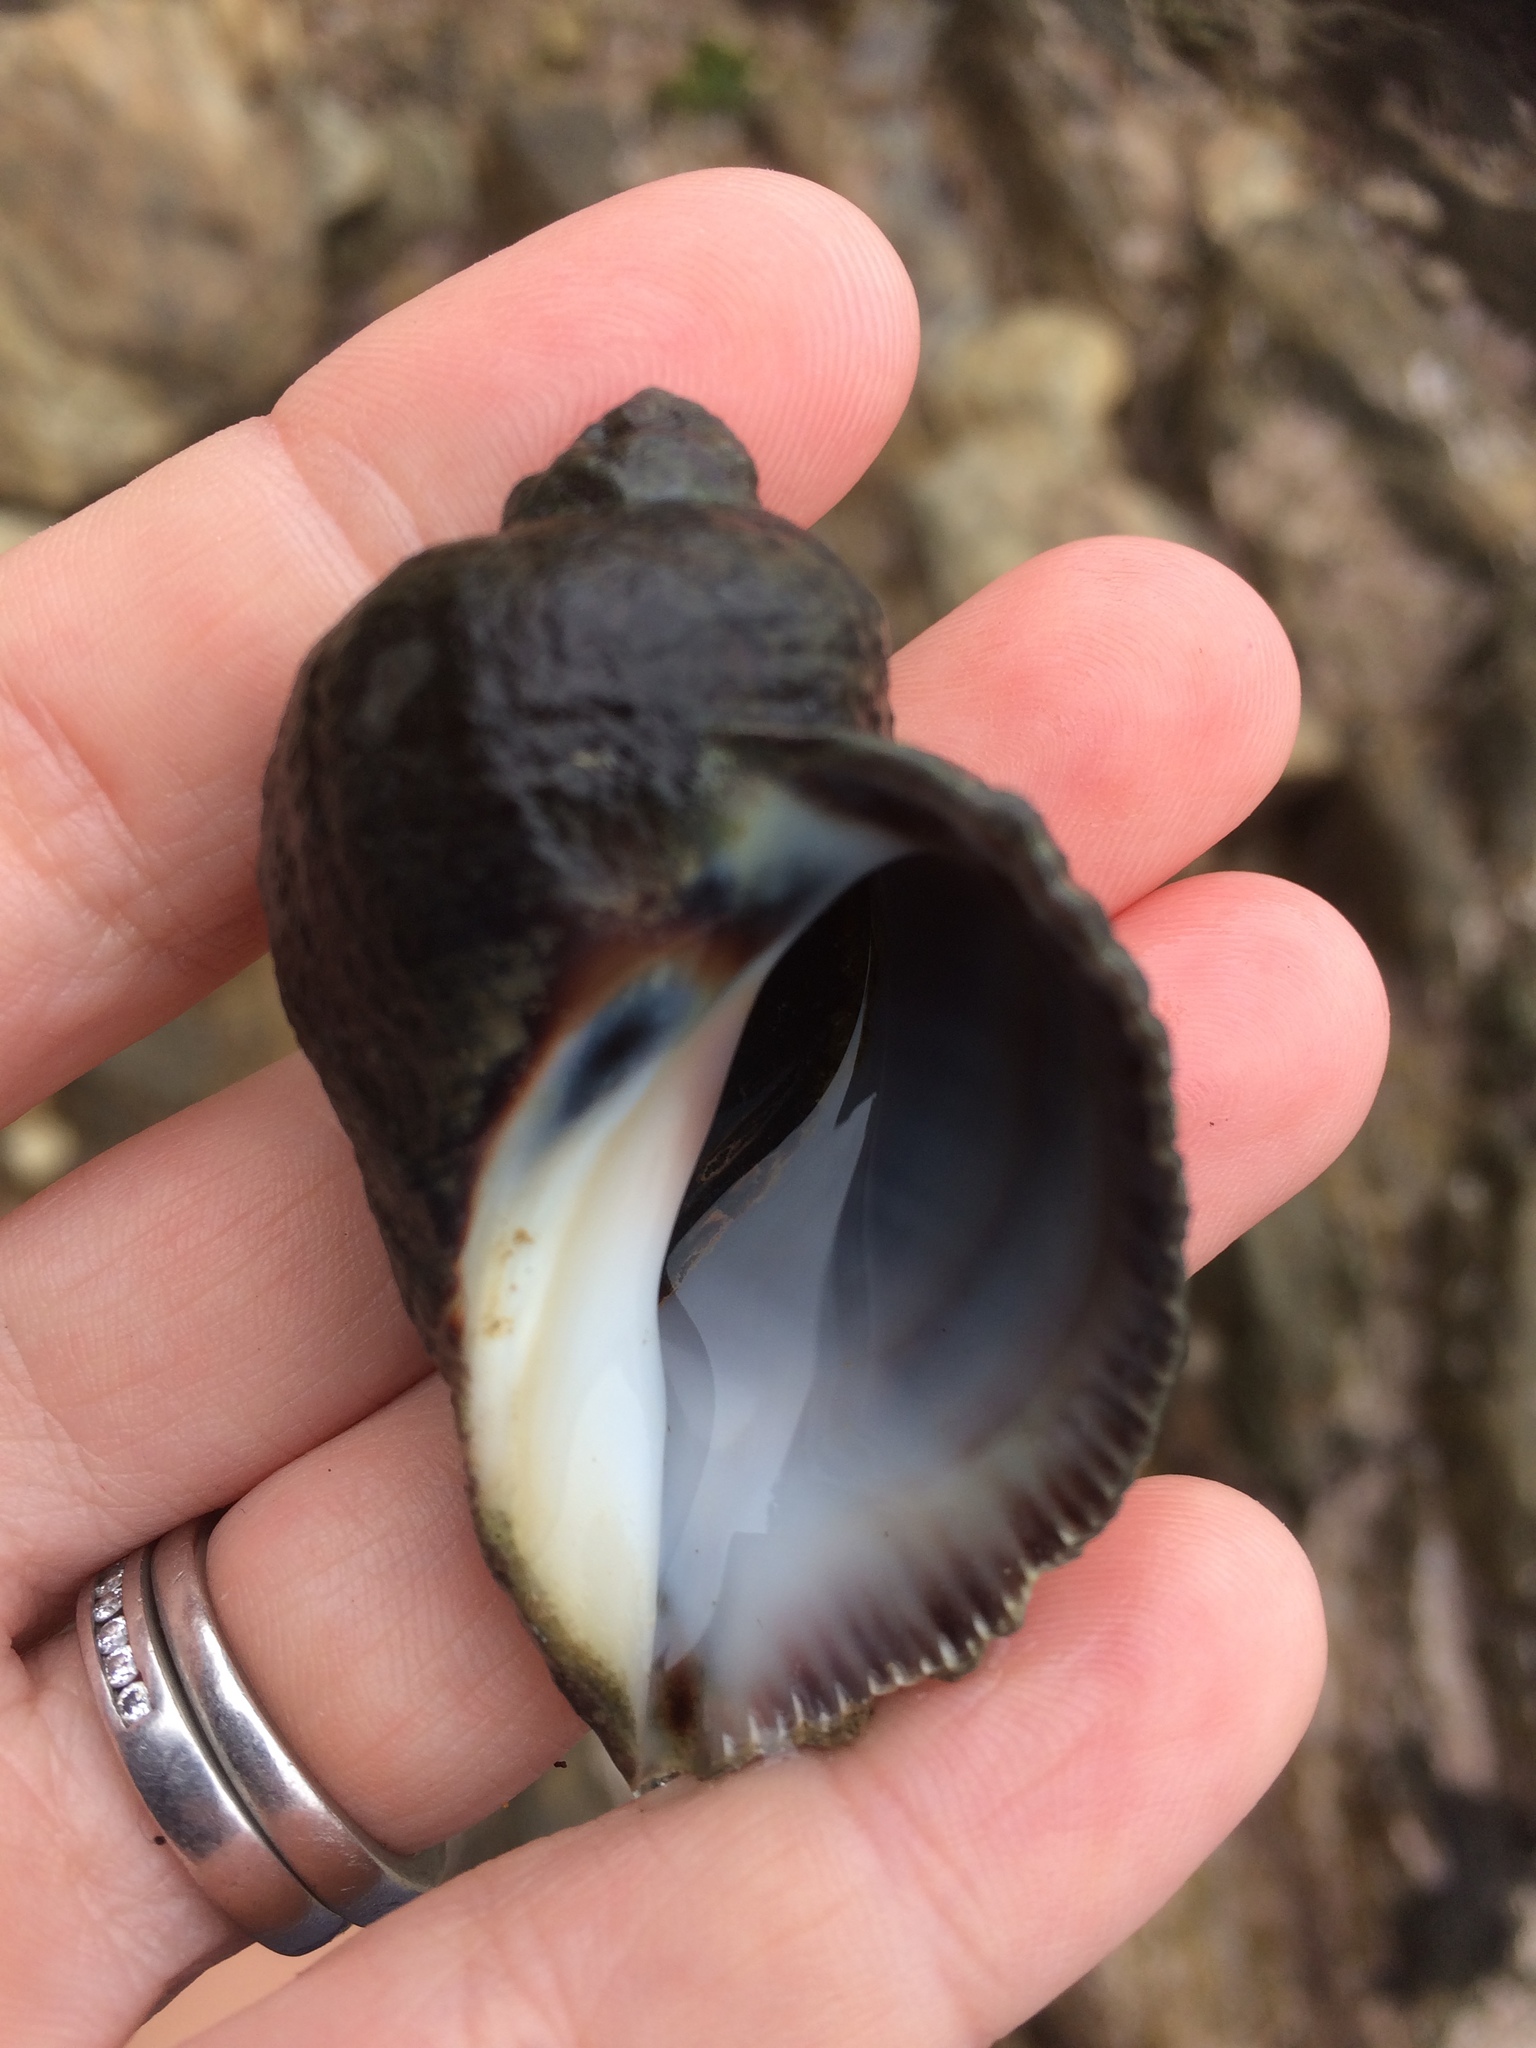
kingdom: Animalia
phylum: Mollusca
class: Gastropoda
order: Neogastropoda
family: Muricidae
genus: Haustrum
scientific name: Haustrum haustorium
